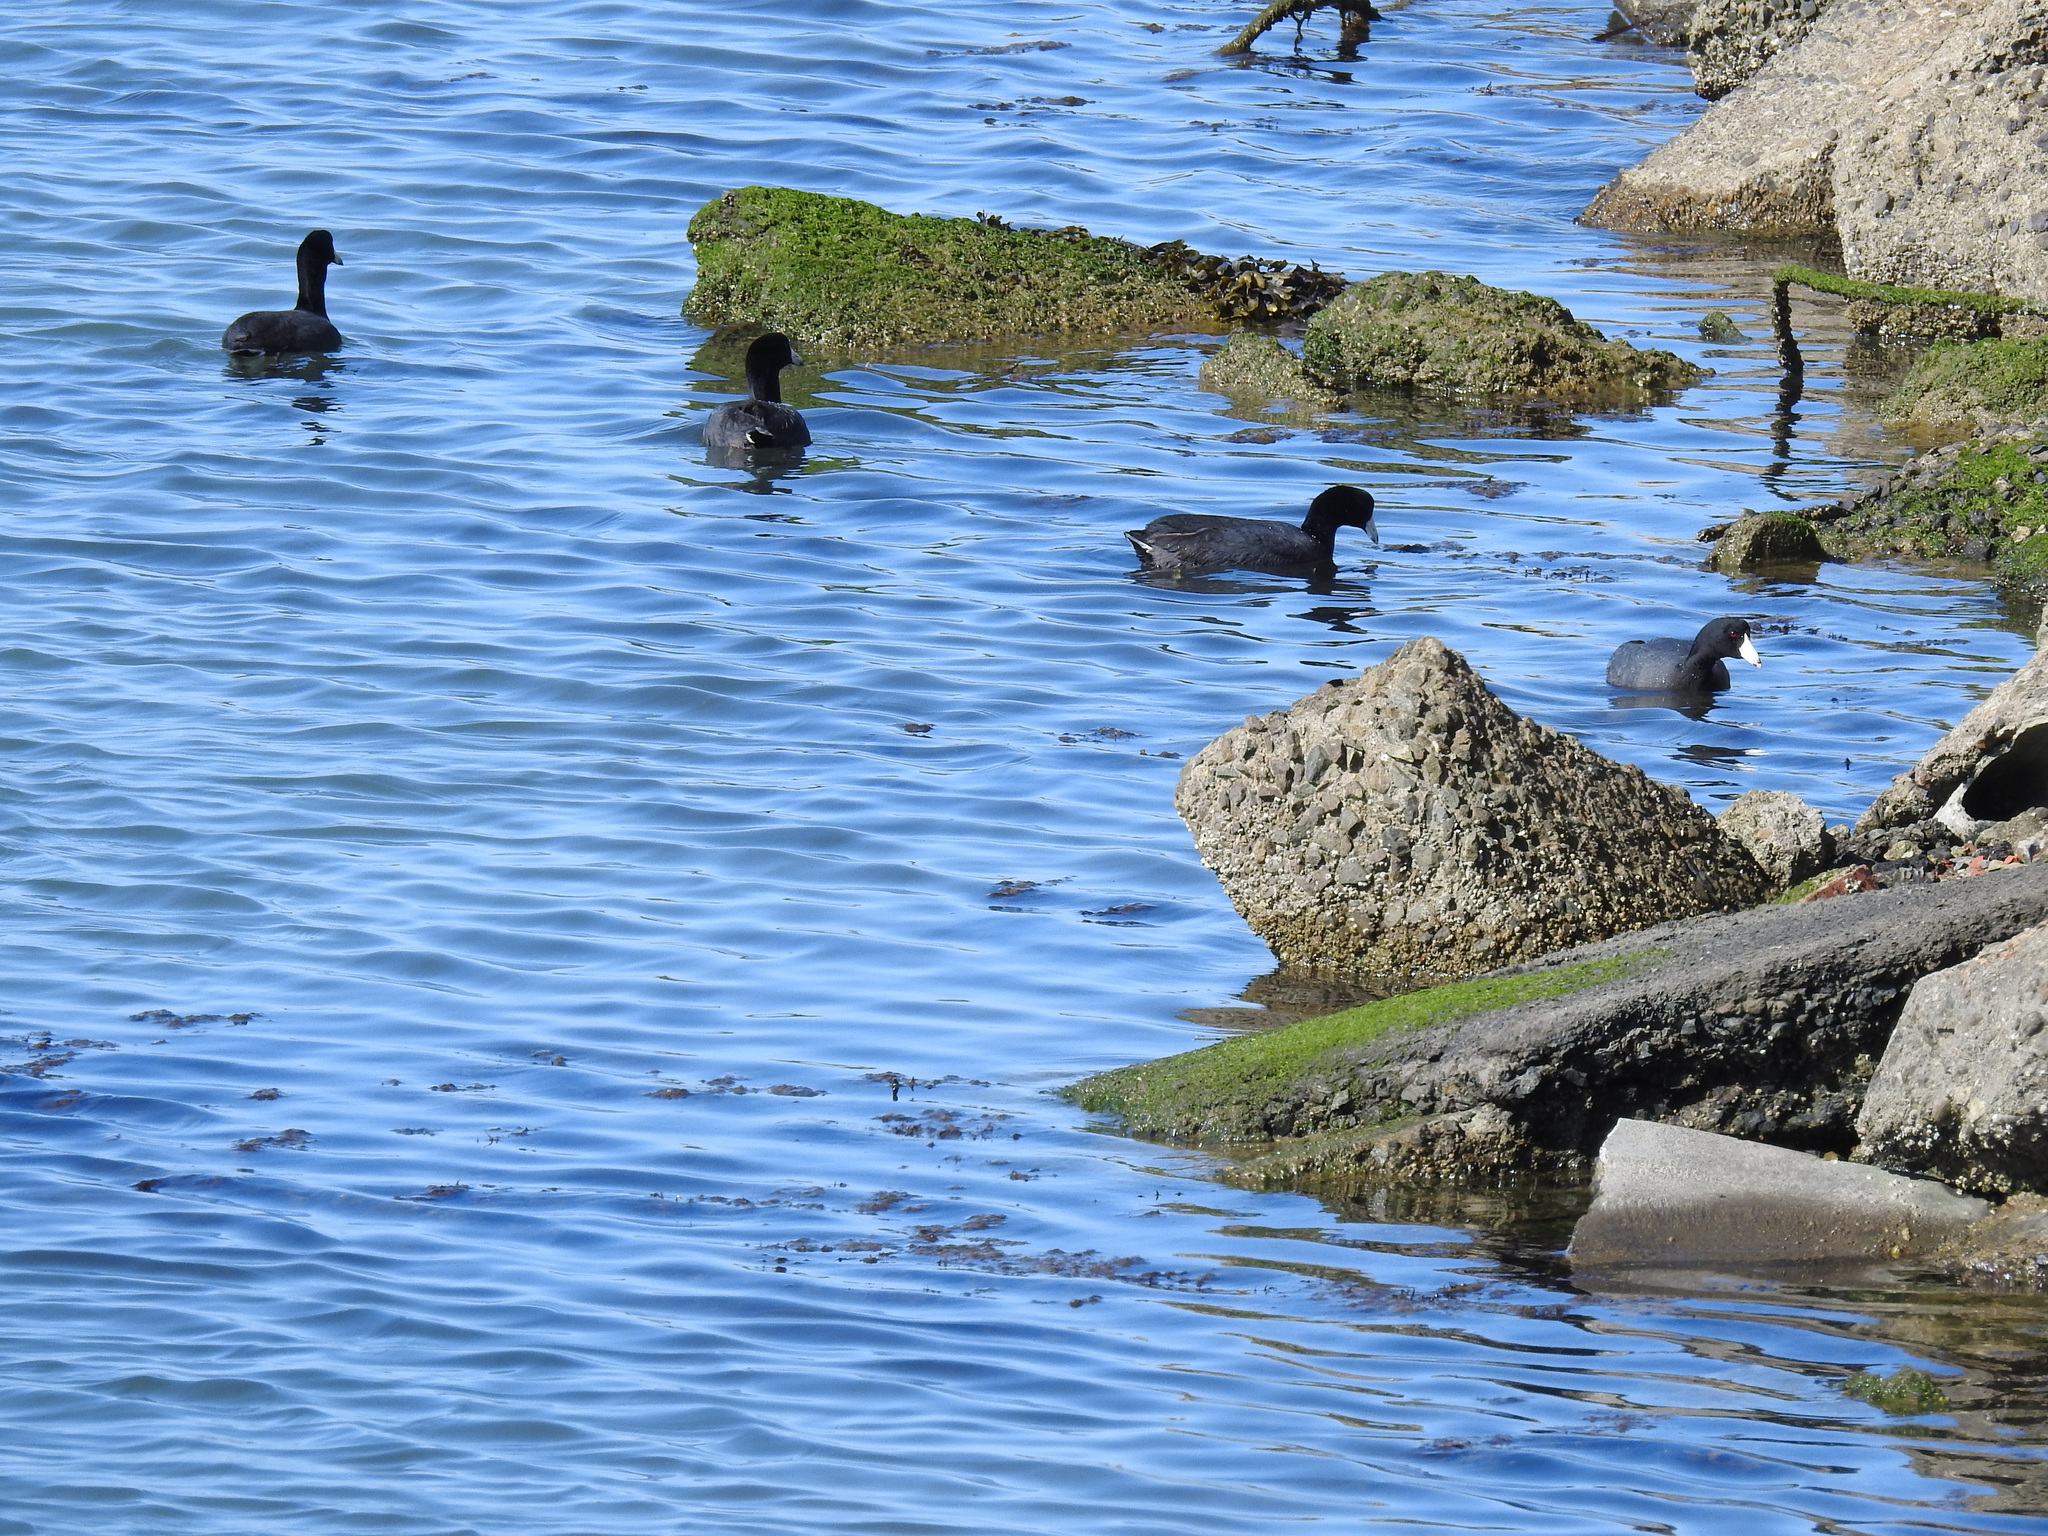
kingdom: Animalia
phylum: Chordata
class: Aves
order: Gruiformes
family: Rallidae
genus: Fulica
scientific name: Fulica americana
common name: American coot
